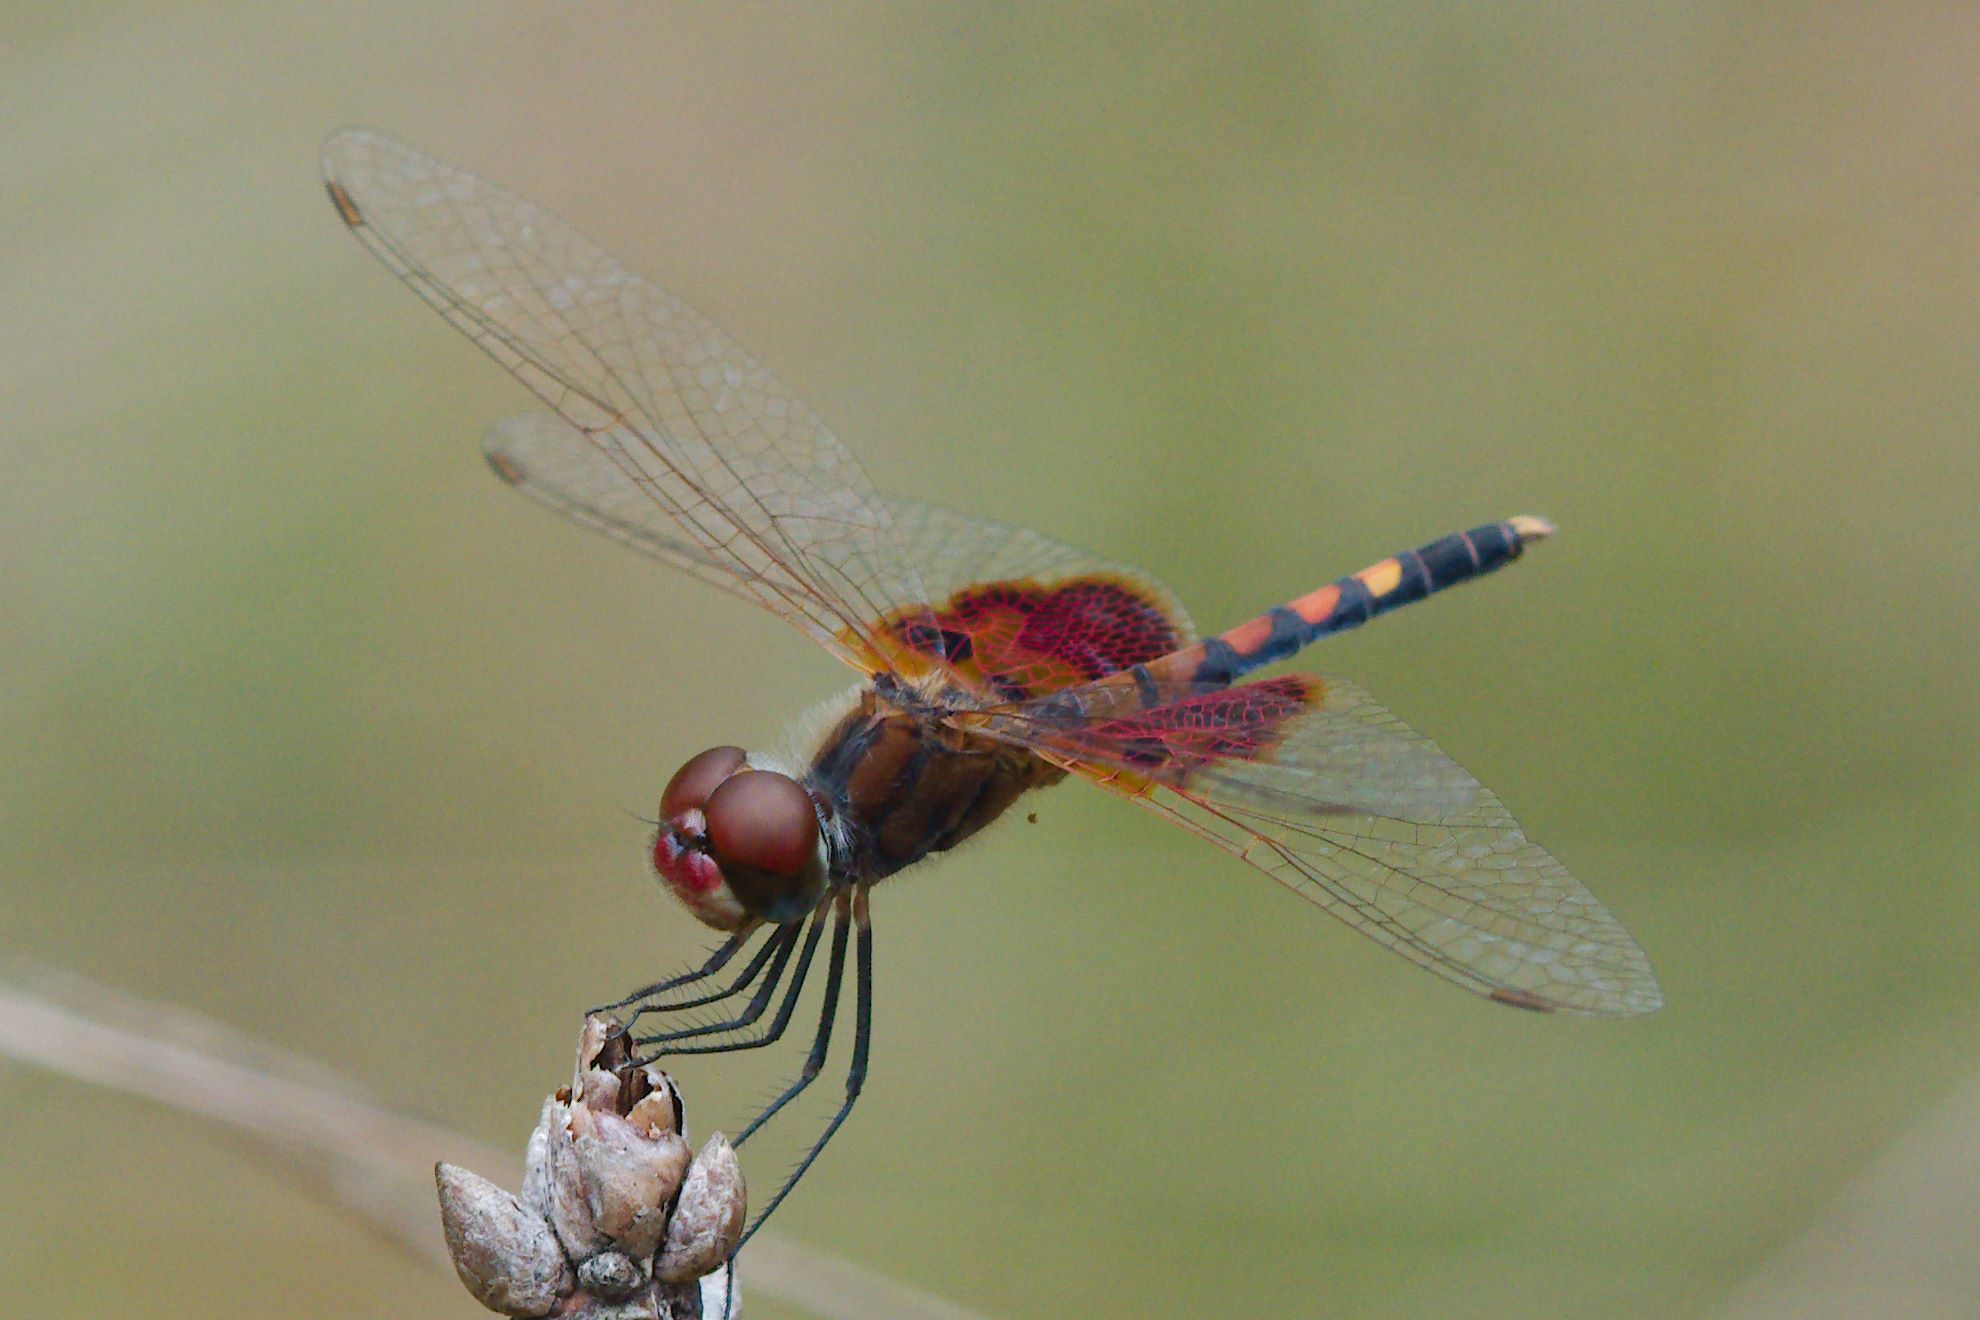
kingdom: Animalia
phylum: Arthropoda
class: Insecta
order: Odonata
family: Libellulidae
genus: Celithemis
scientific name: Celithemis amanda
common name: Amanda's pennant
